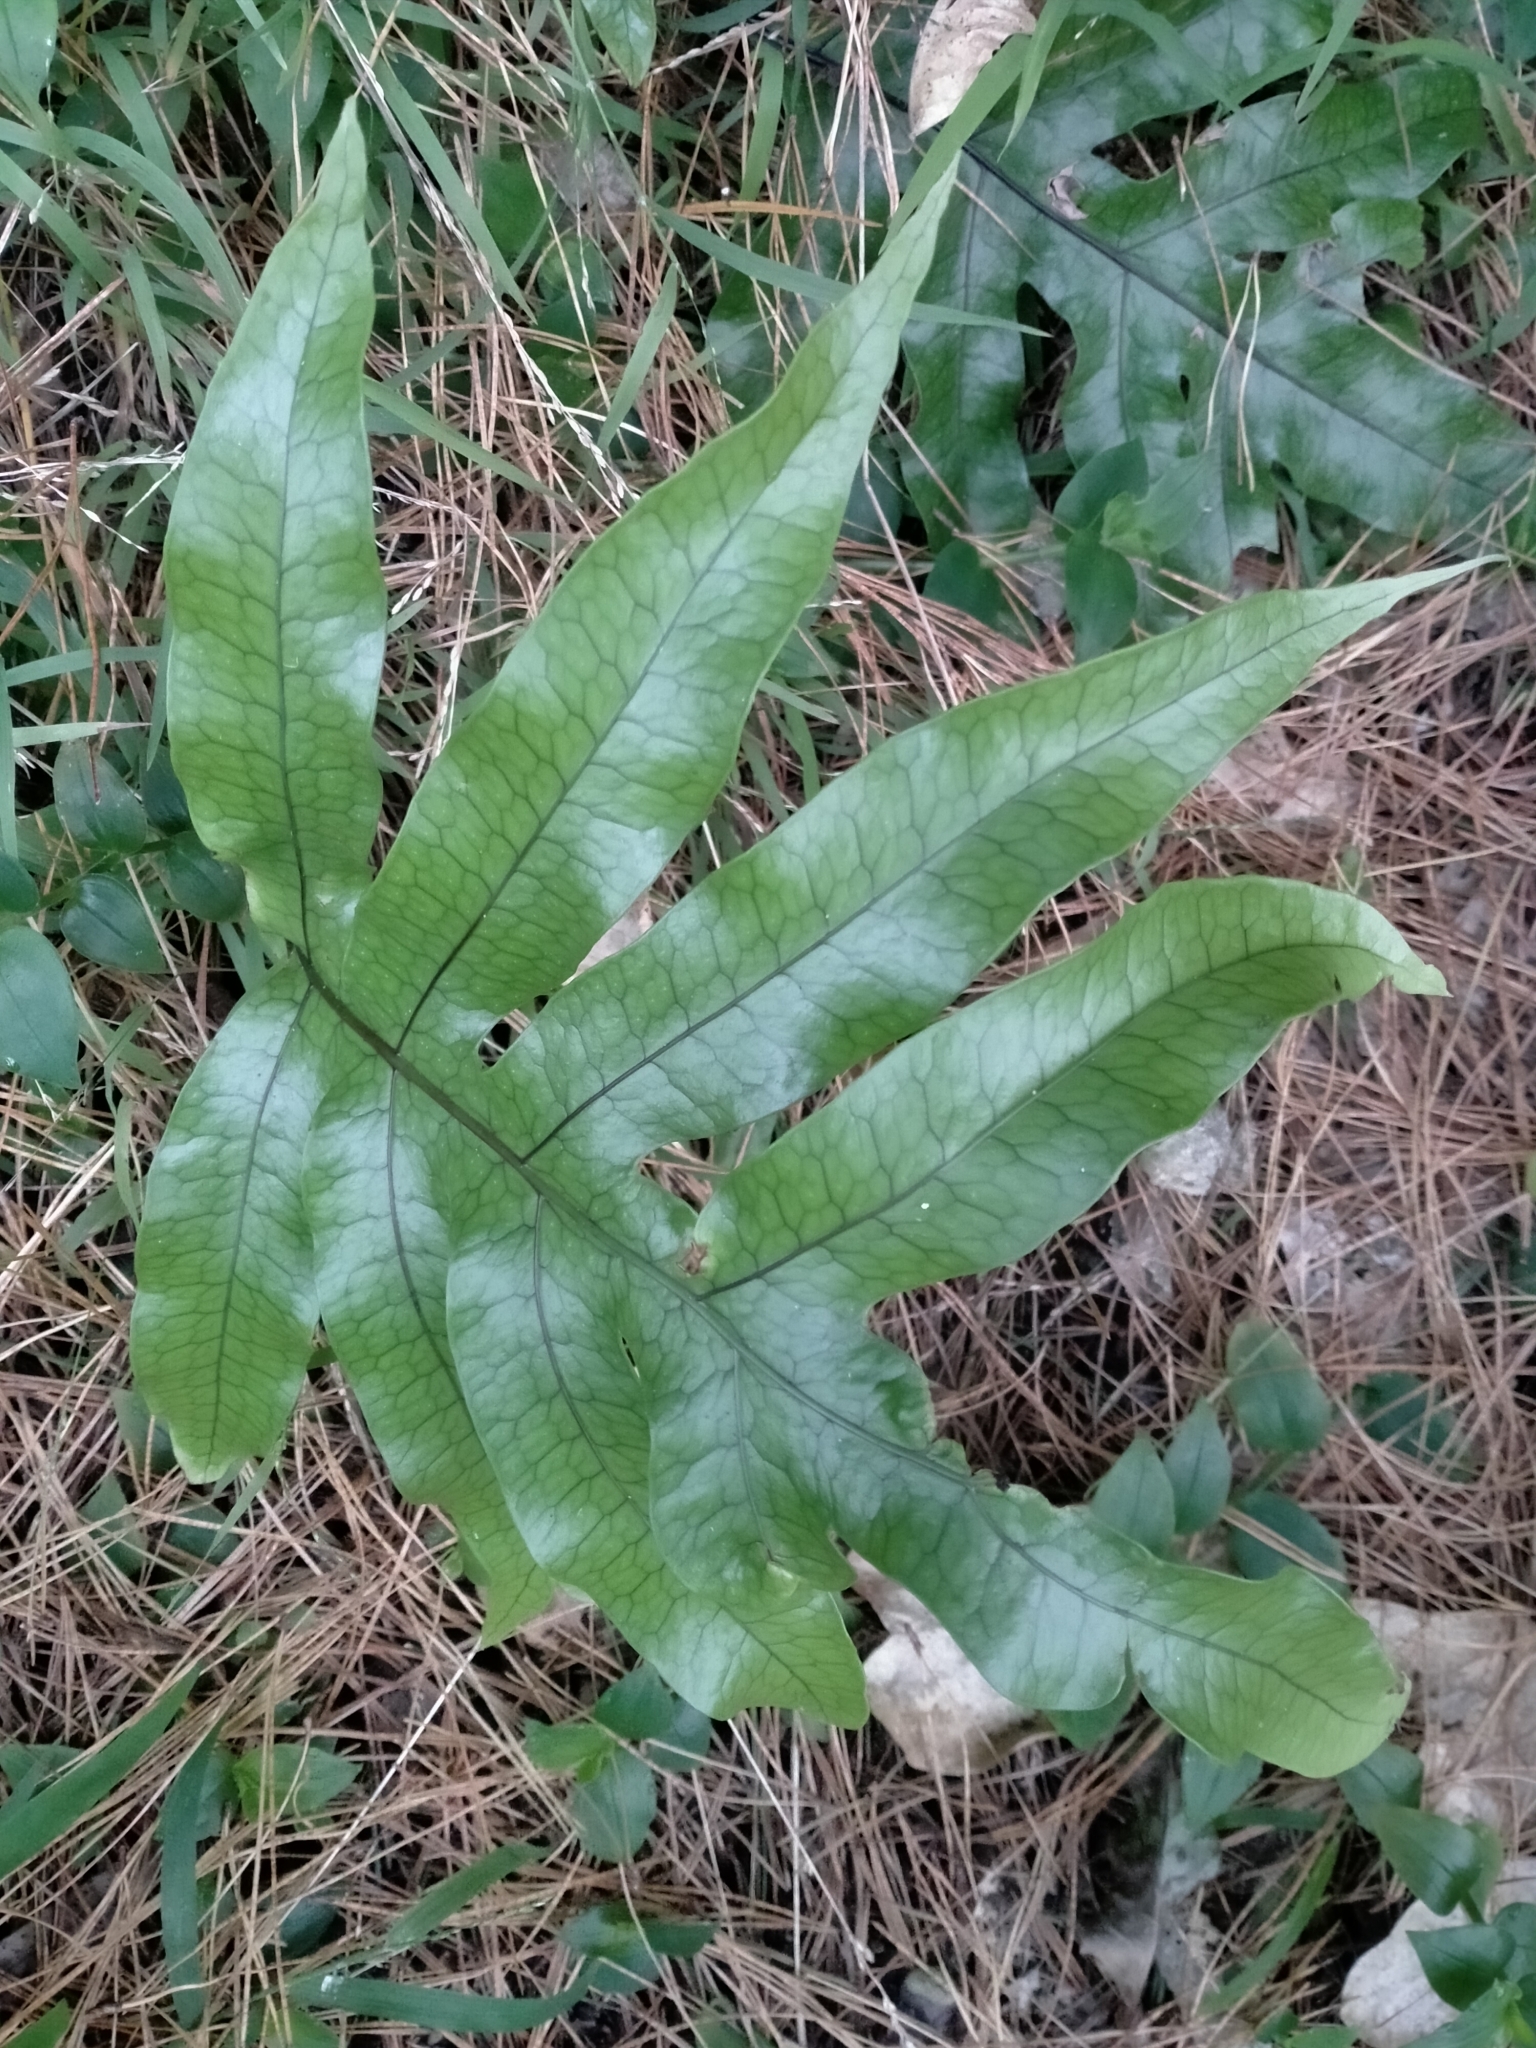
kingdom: Plantae
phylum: Tracheophyta
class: Polypodiopsida
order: Polypodiales
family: Polypodiaceae
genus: Lecanopteris
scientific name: Lecanopteris pustulata
